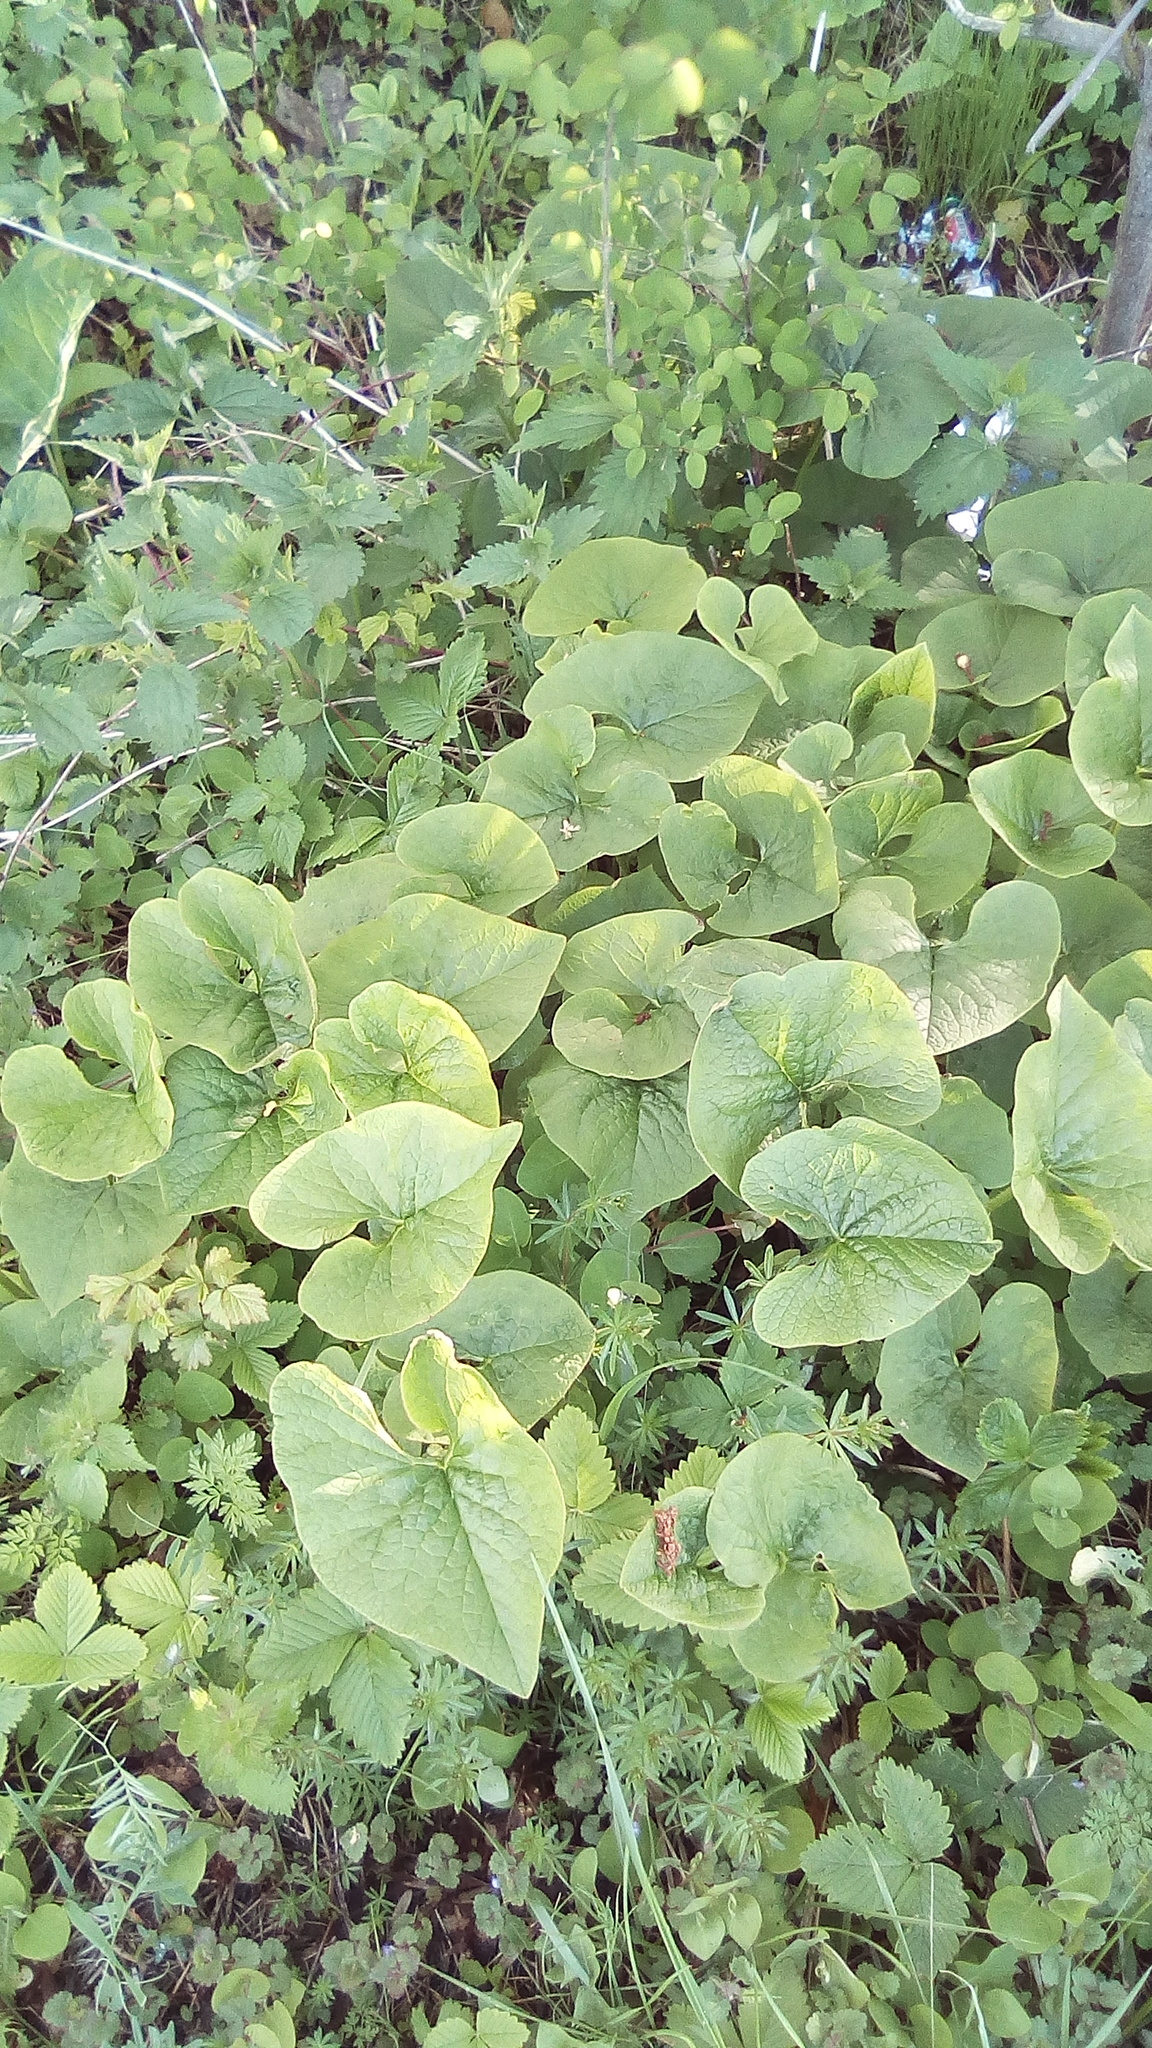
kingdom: Plantae
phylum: Tracheophyta
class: Magnoliopsida
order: Boraginales
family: Boraginaceae
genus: Brunnera
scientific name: Brunnera sibirica
